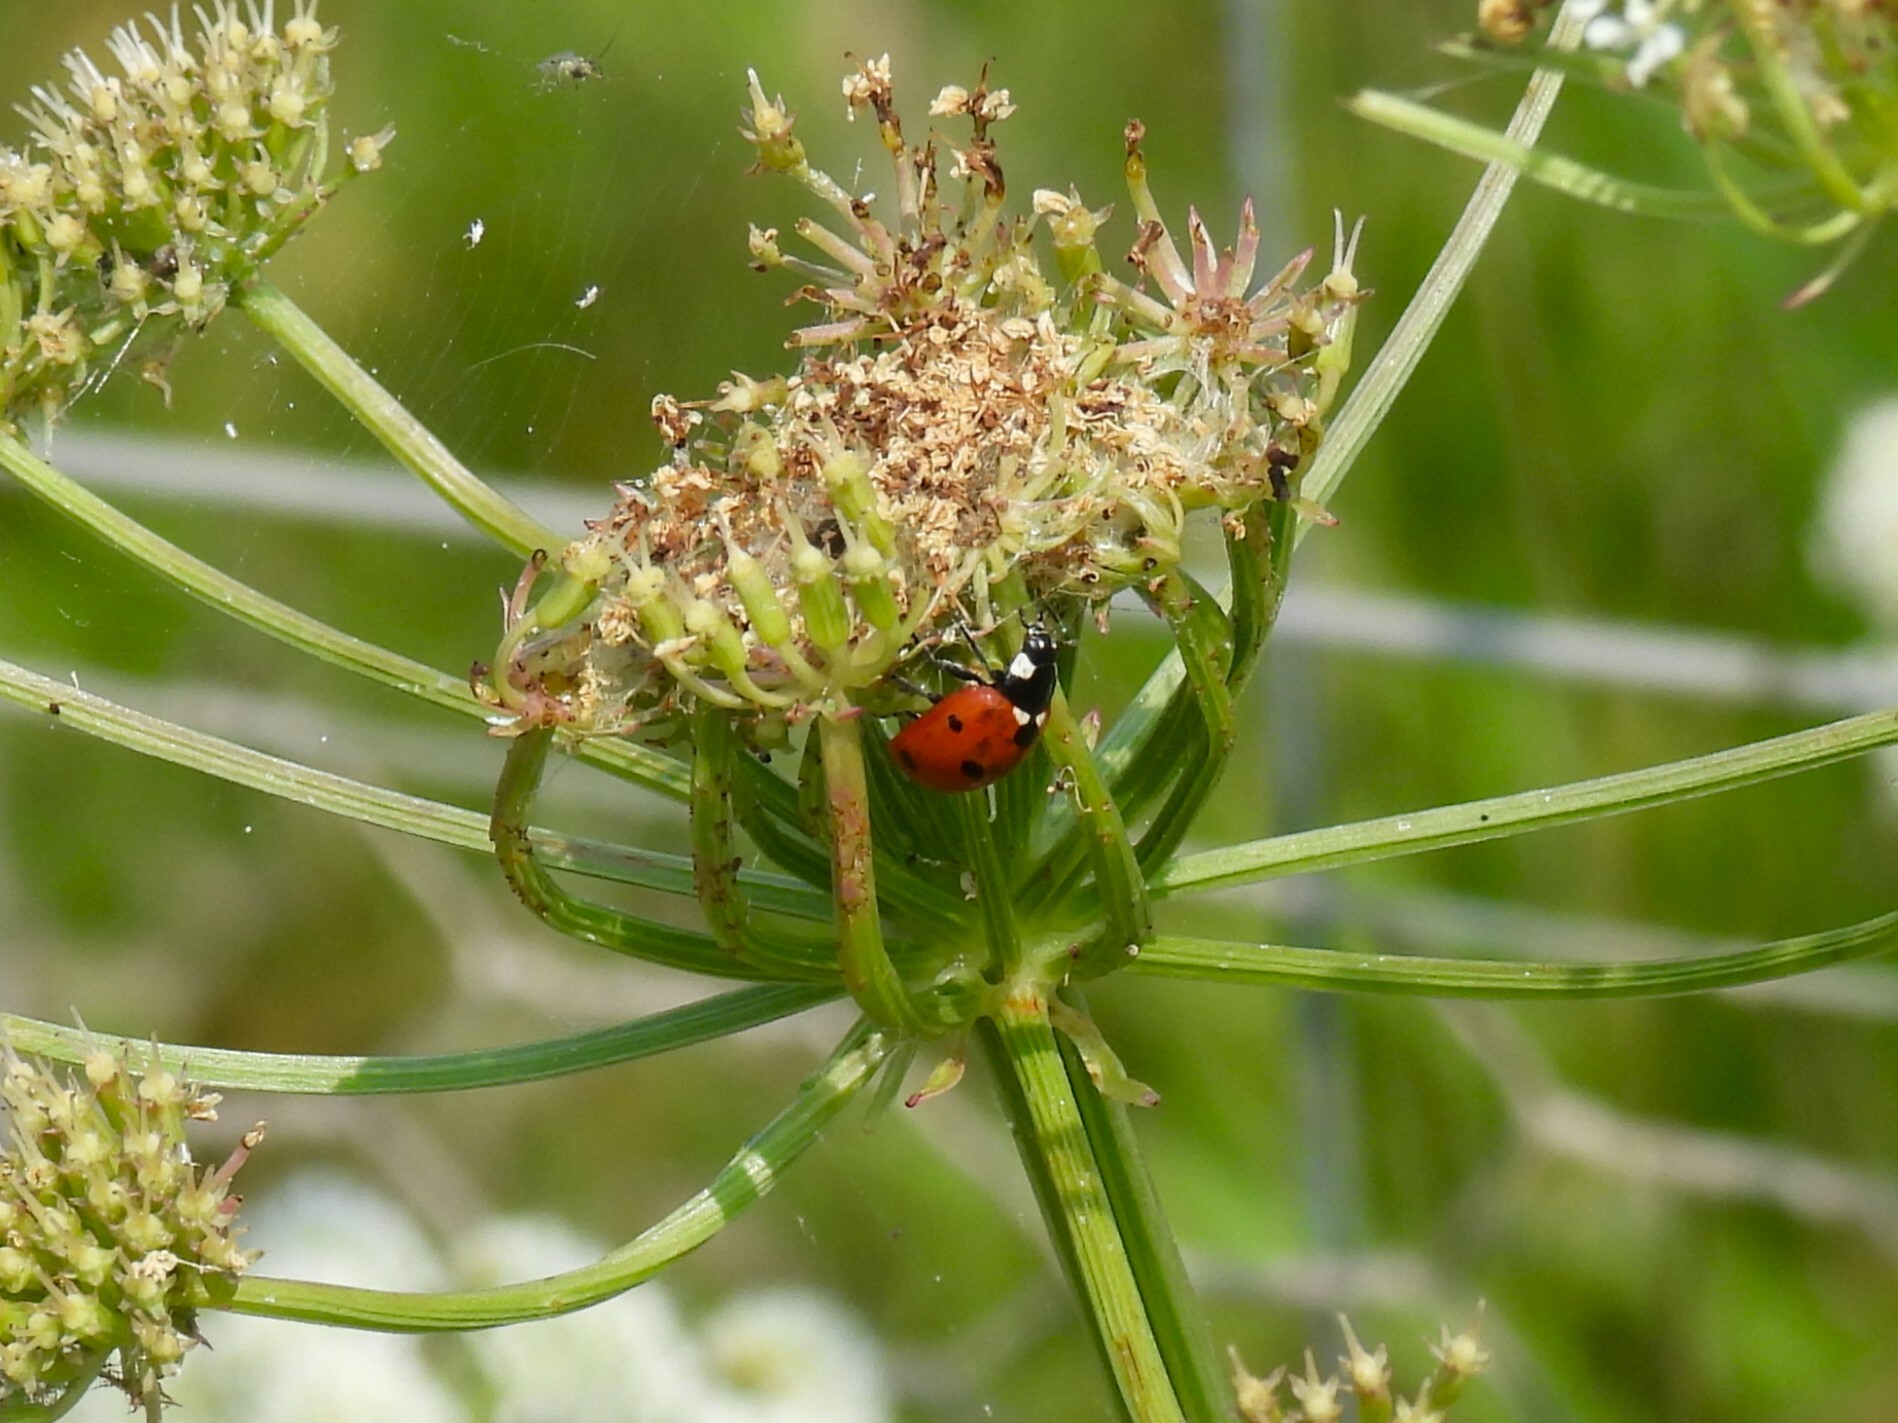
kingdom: Animalia
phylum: Arthropoda
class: Insecta
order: Coleoptera
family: Coccinellidae
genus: Coccinella
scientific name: Coccinella septempunctata
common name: Sevenspotted lady beetle
